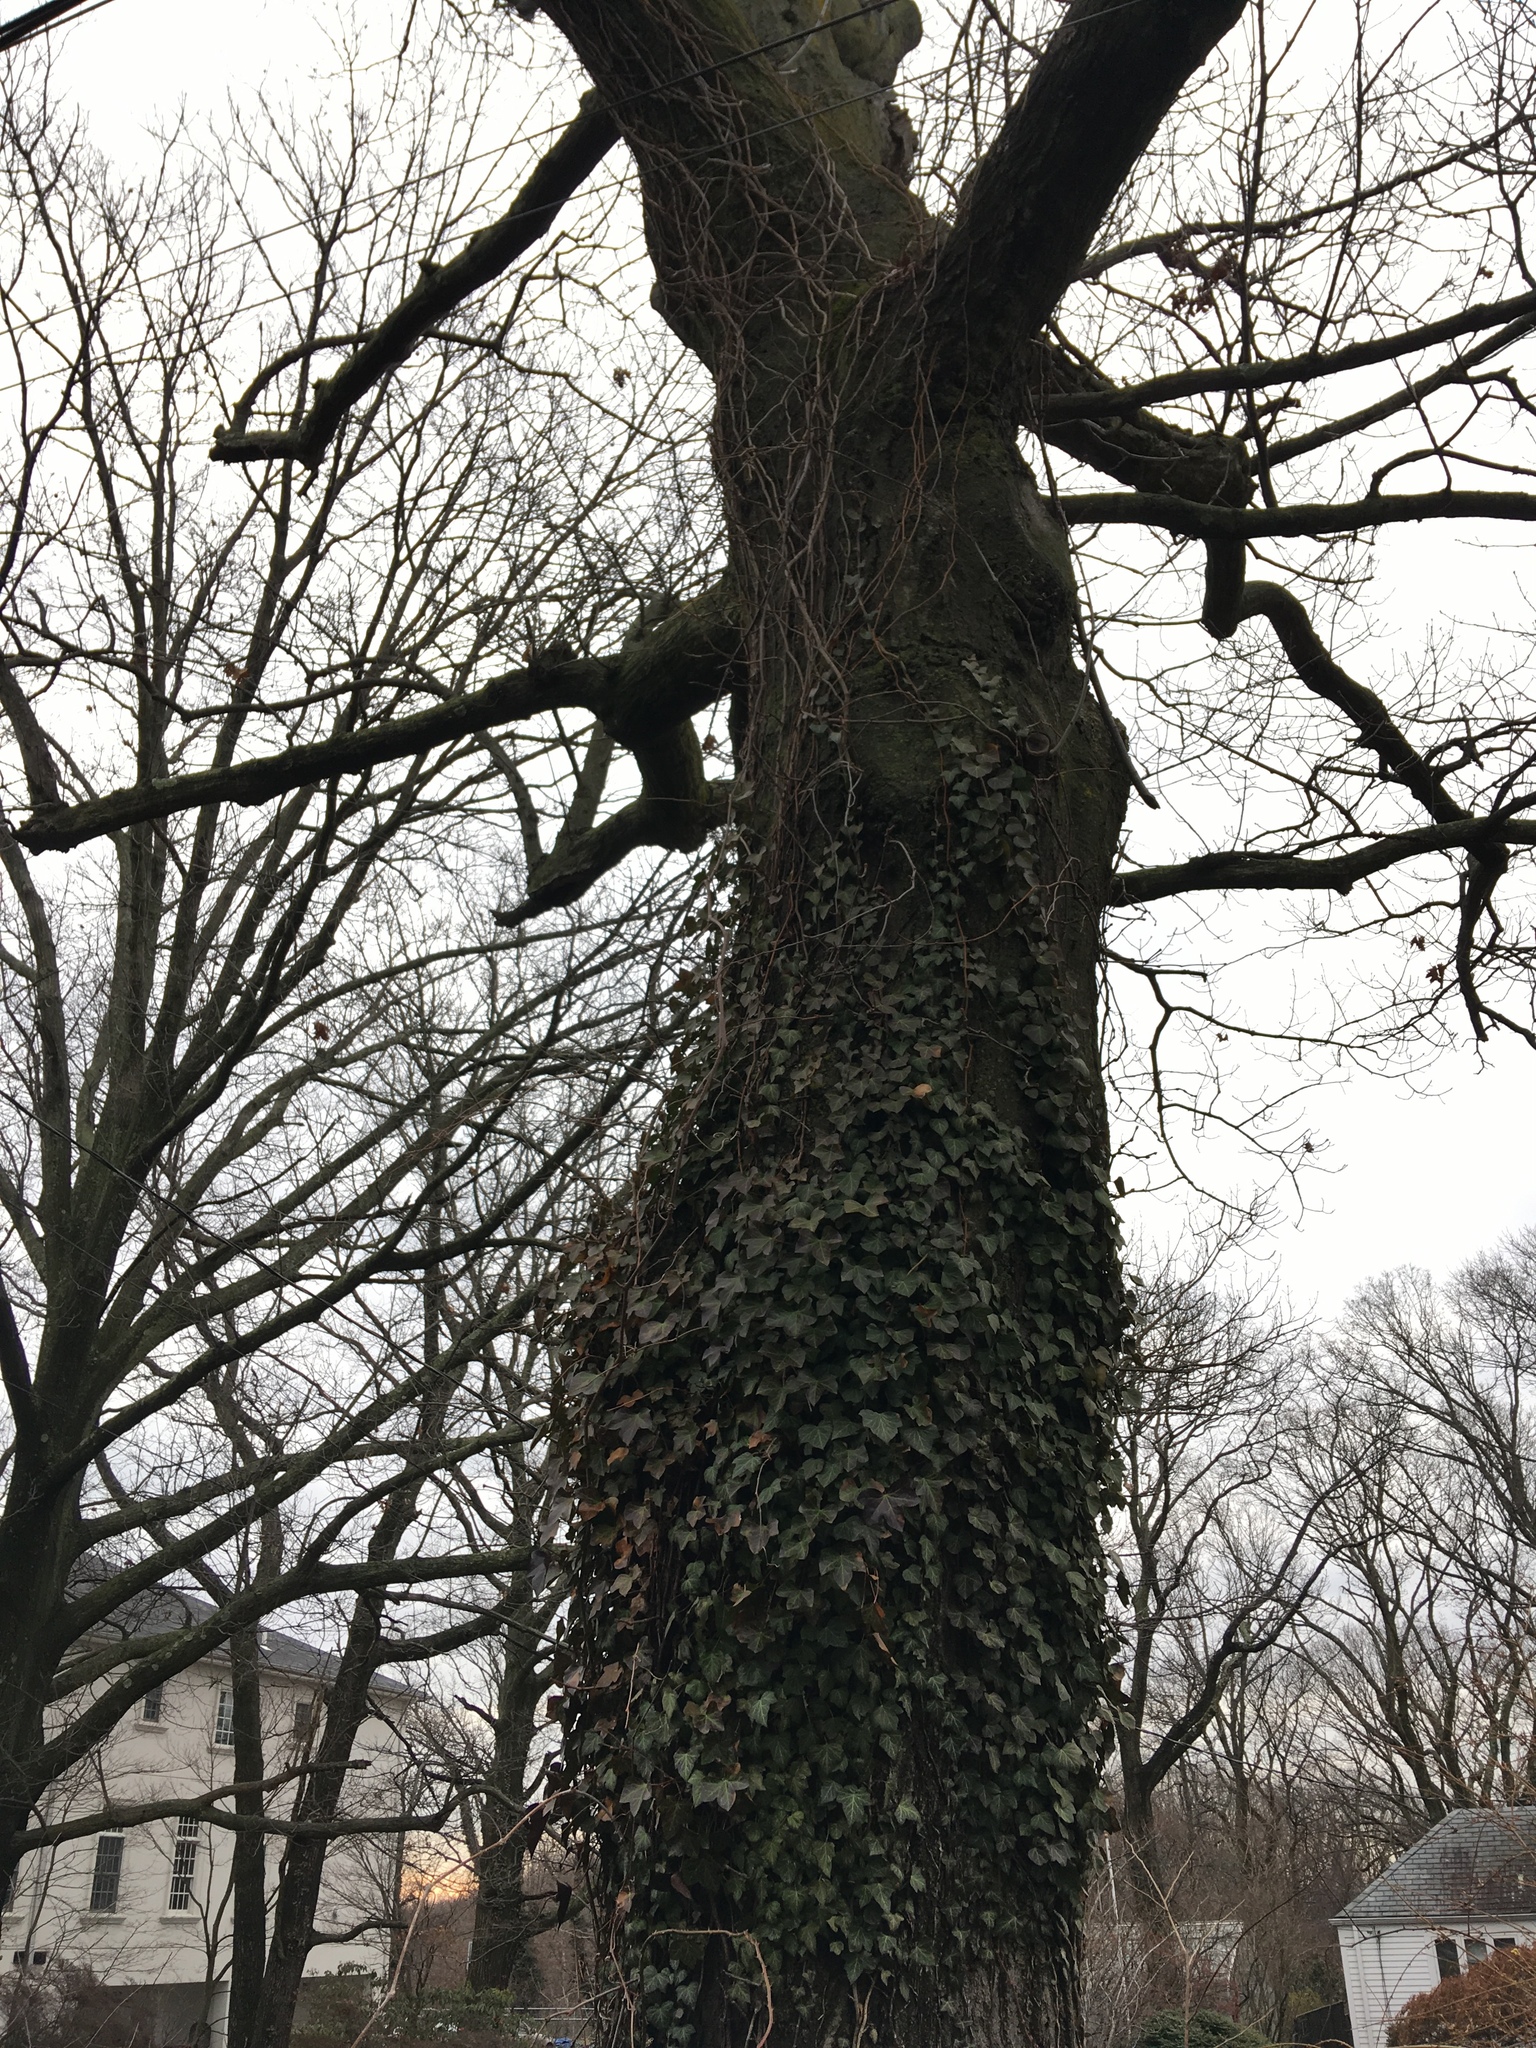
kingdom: Plantae
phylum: Tracheophyta
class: Magnoliopsida
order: Apiales
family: Araliaceae
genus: Hedera
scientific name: Hedera helix
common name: Ivy
